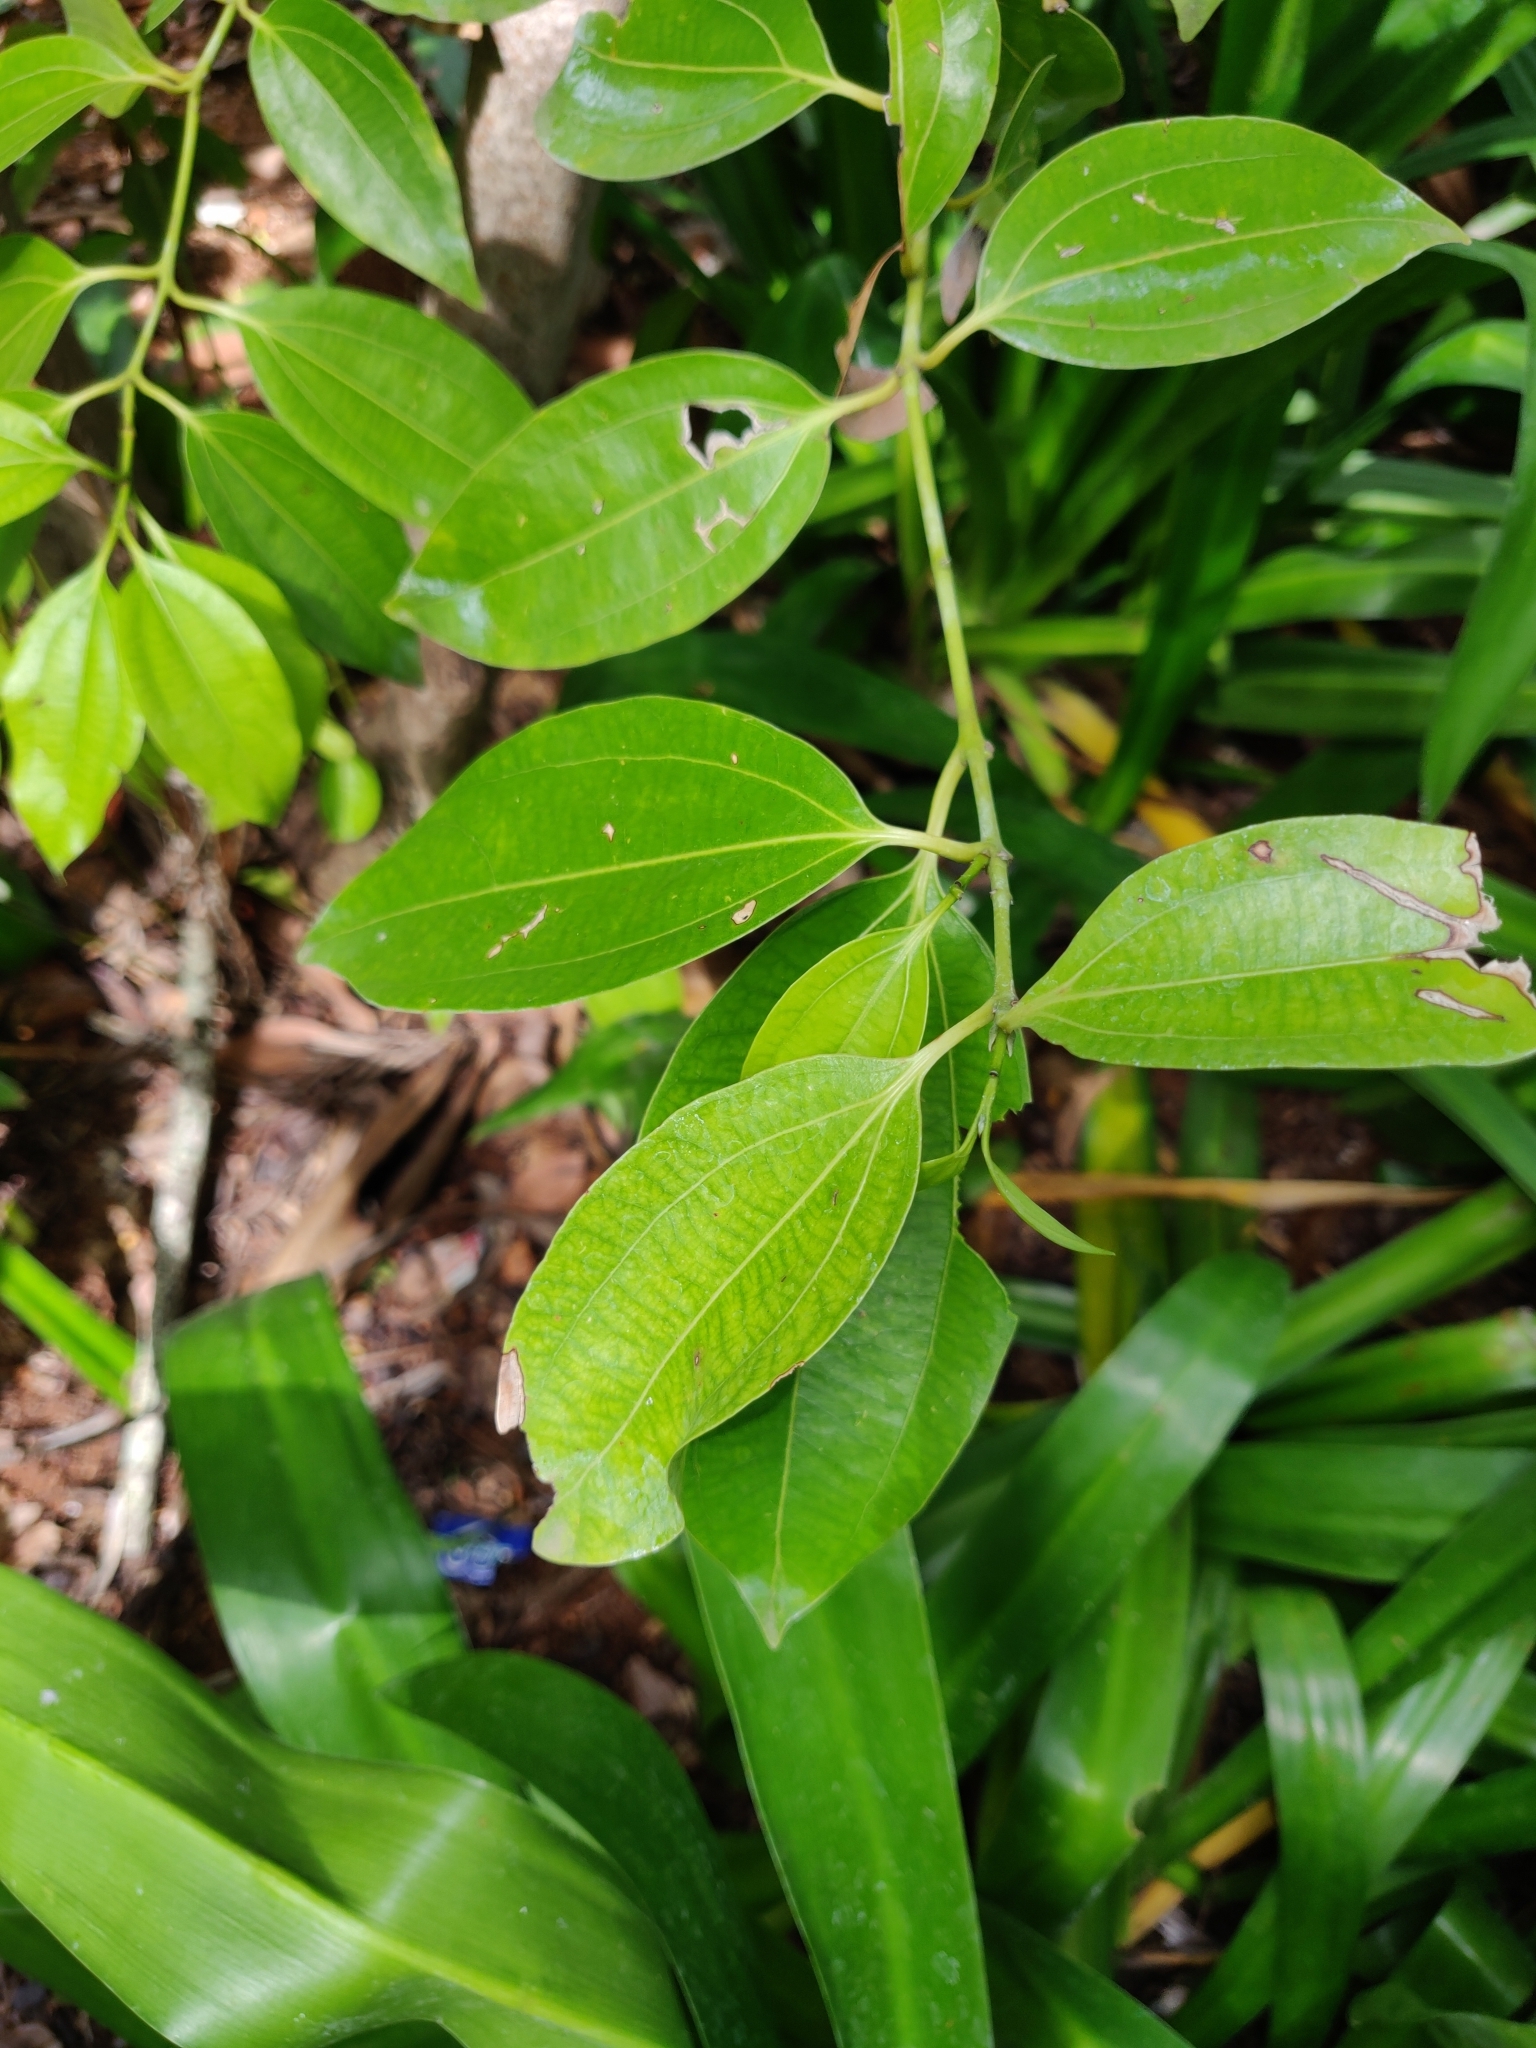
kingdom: Plantae
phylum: Tracheophyta
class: Magnoliopsida
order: Laurales
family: Lauraceae
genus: Cinnamomum
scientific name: Cinnamomum verum
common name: Cinnamon
